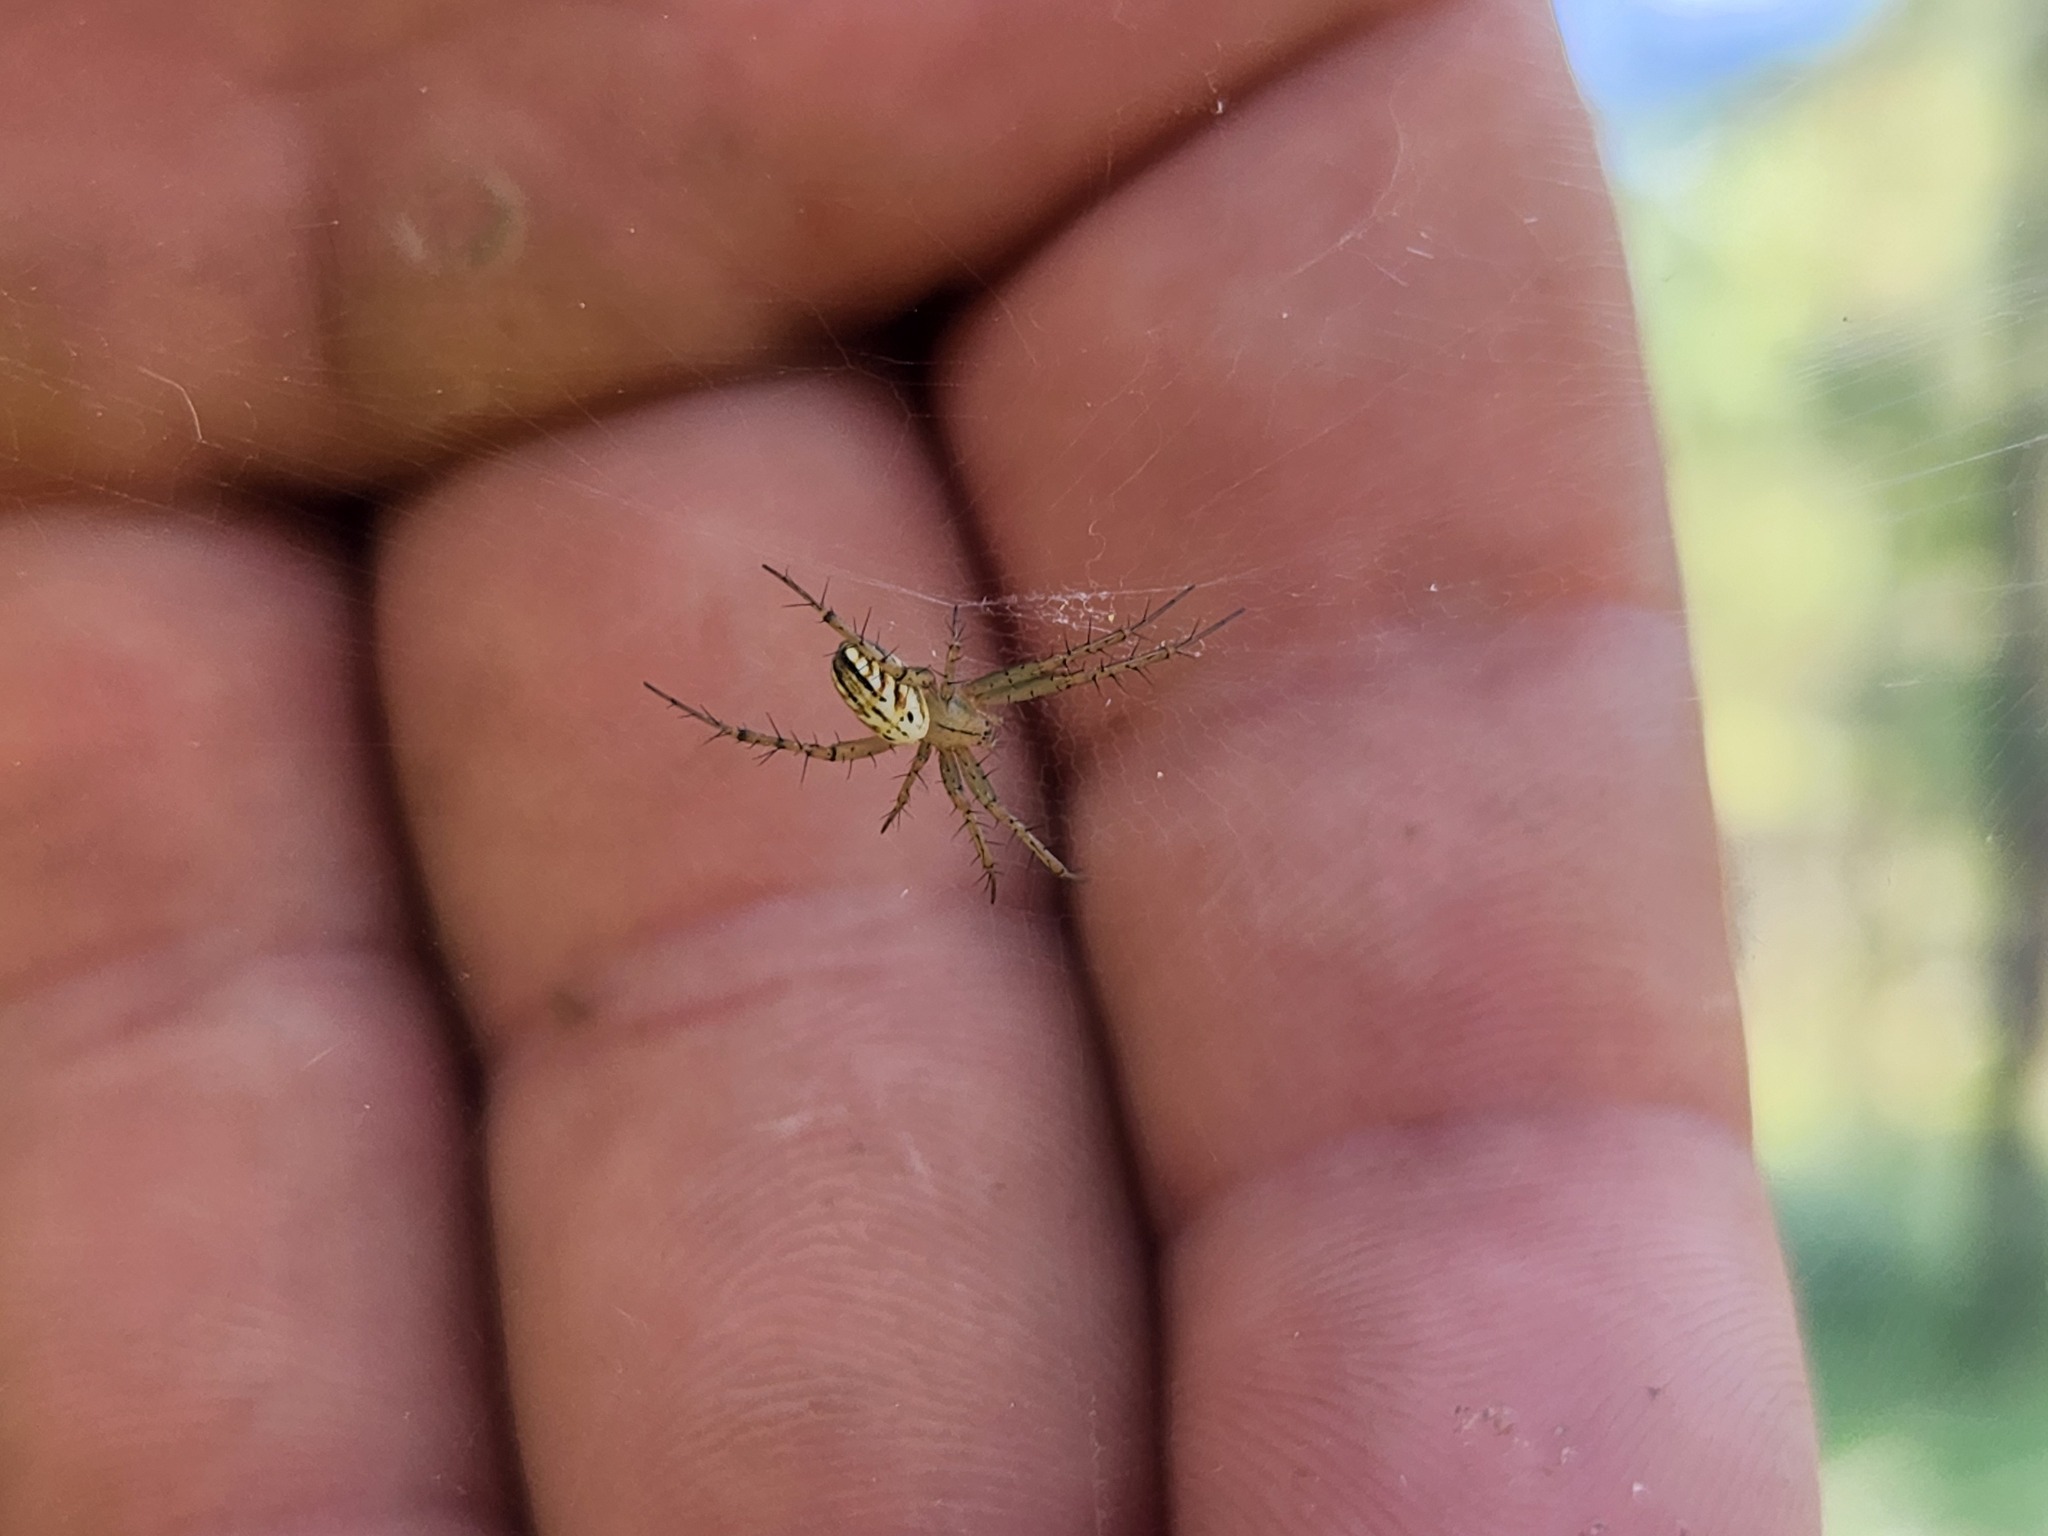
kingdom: Animalia
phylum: Arthropoda
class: Arachnida
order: Araneae
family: Araneidae
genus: Mangora
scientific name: Mangora gibberosa
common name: Lined orbweaver
